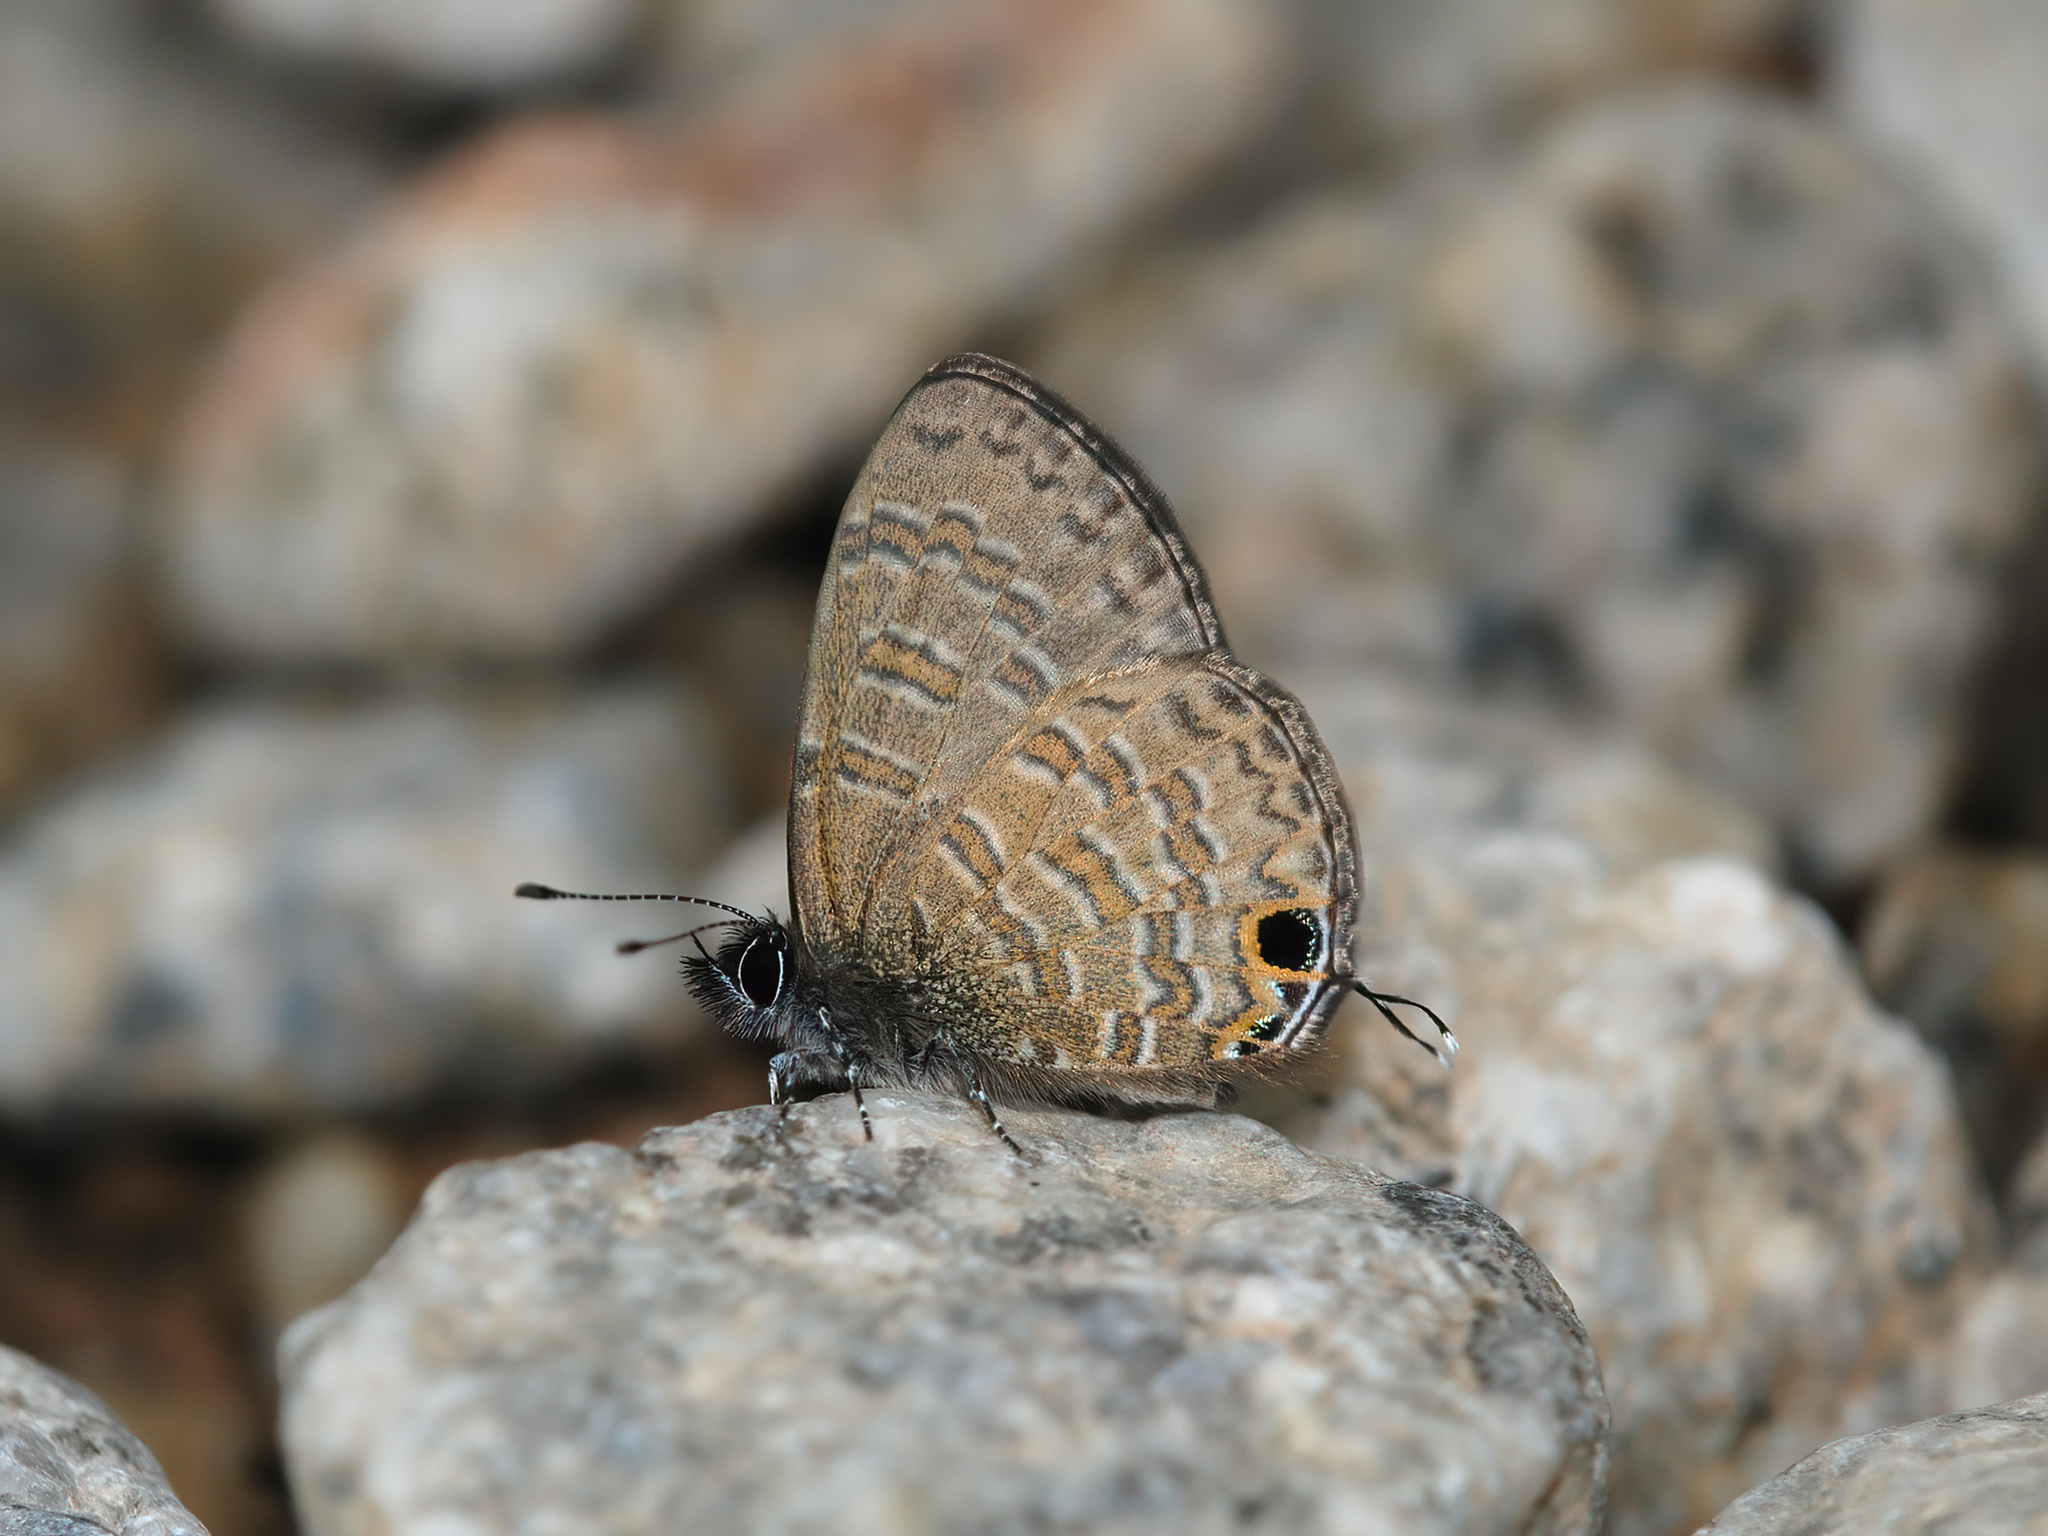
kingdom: Animalia
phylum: Arthropoda
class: Insecta
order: Lepidoptera
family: Lycaenidae
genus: Prosotas
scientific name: Prosotas nora
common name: Common line blue
